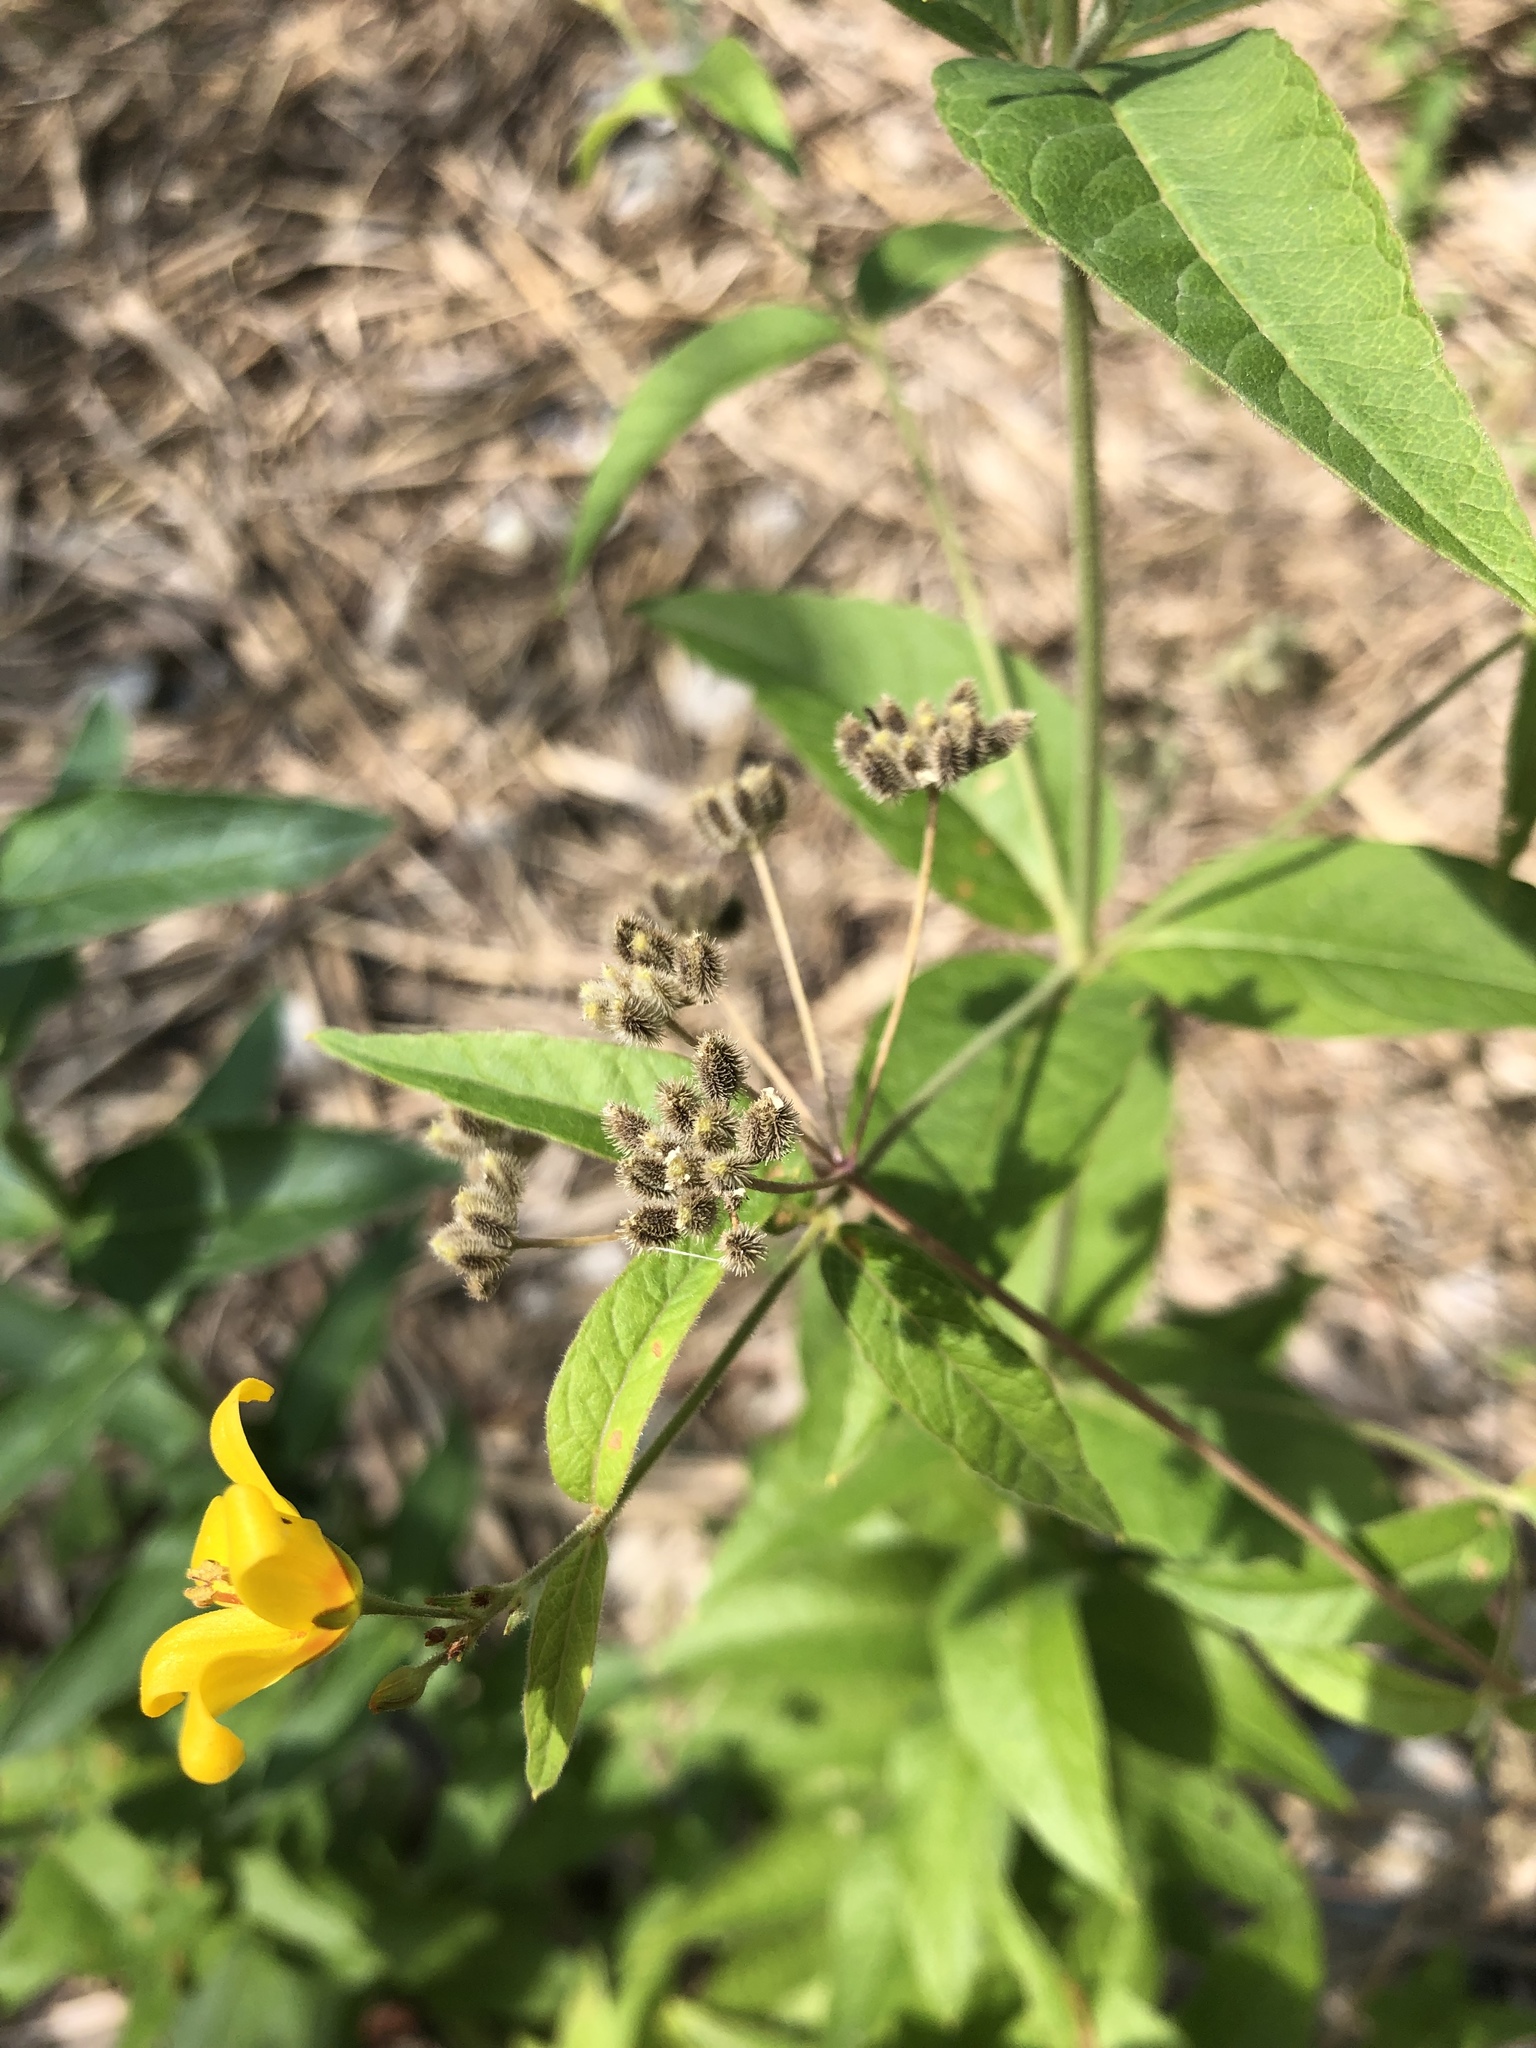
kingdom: Plantae
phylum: Tracheophyta
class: Magnoliopsida
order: Ericales
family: Primulaceae
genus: Lysimachia
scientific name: Lysimachia vulgaris
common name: Yellow loosestrife
